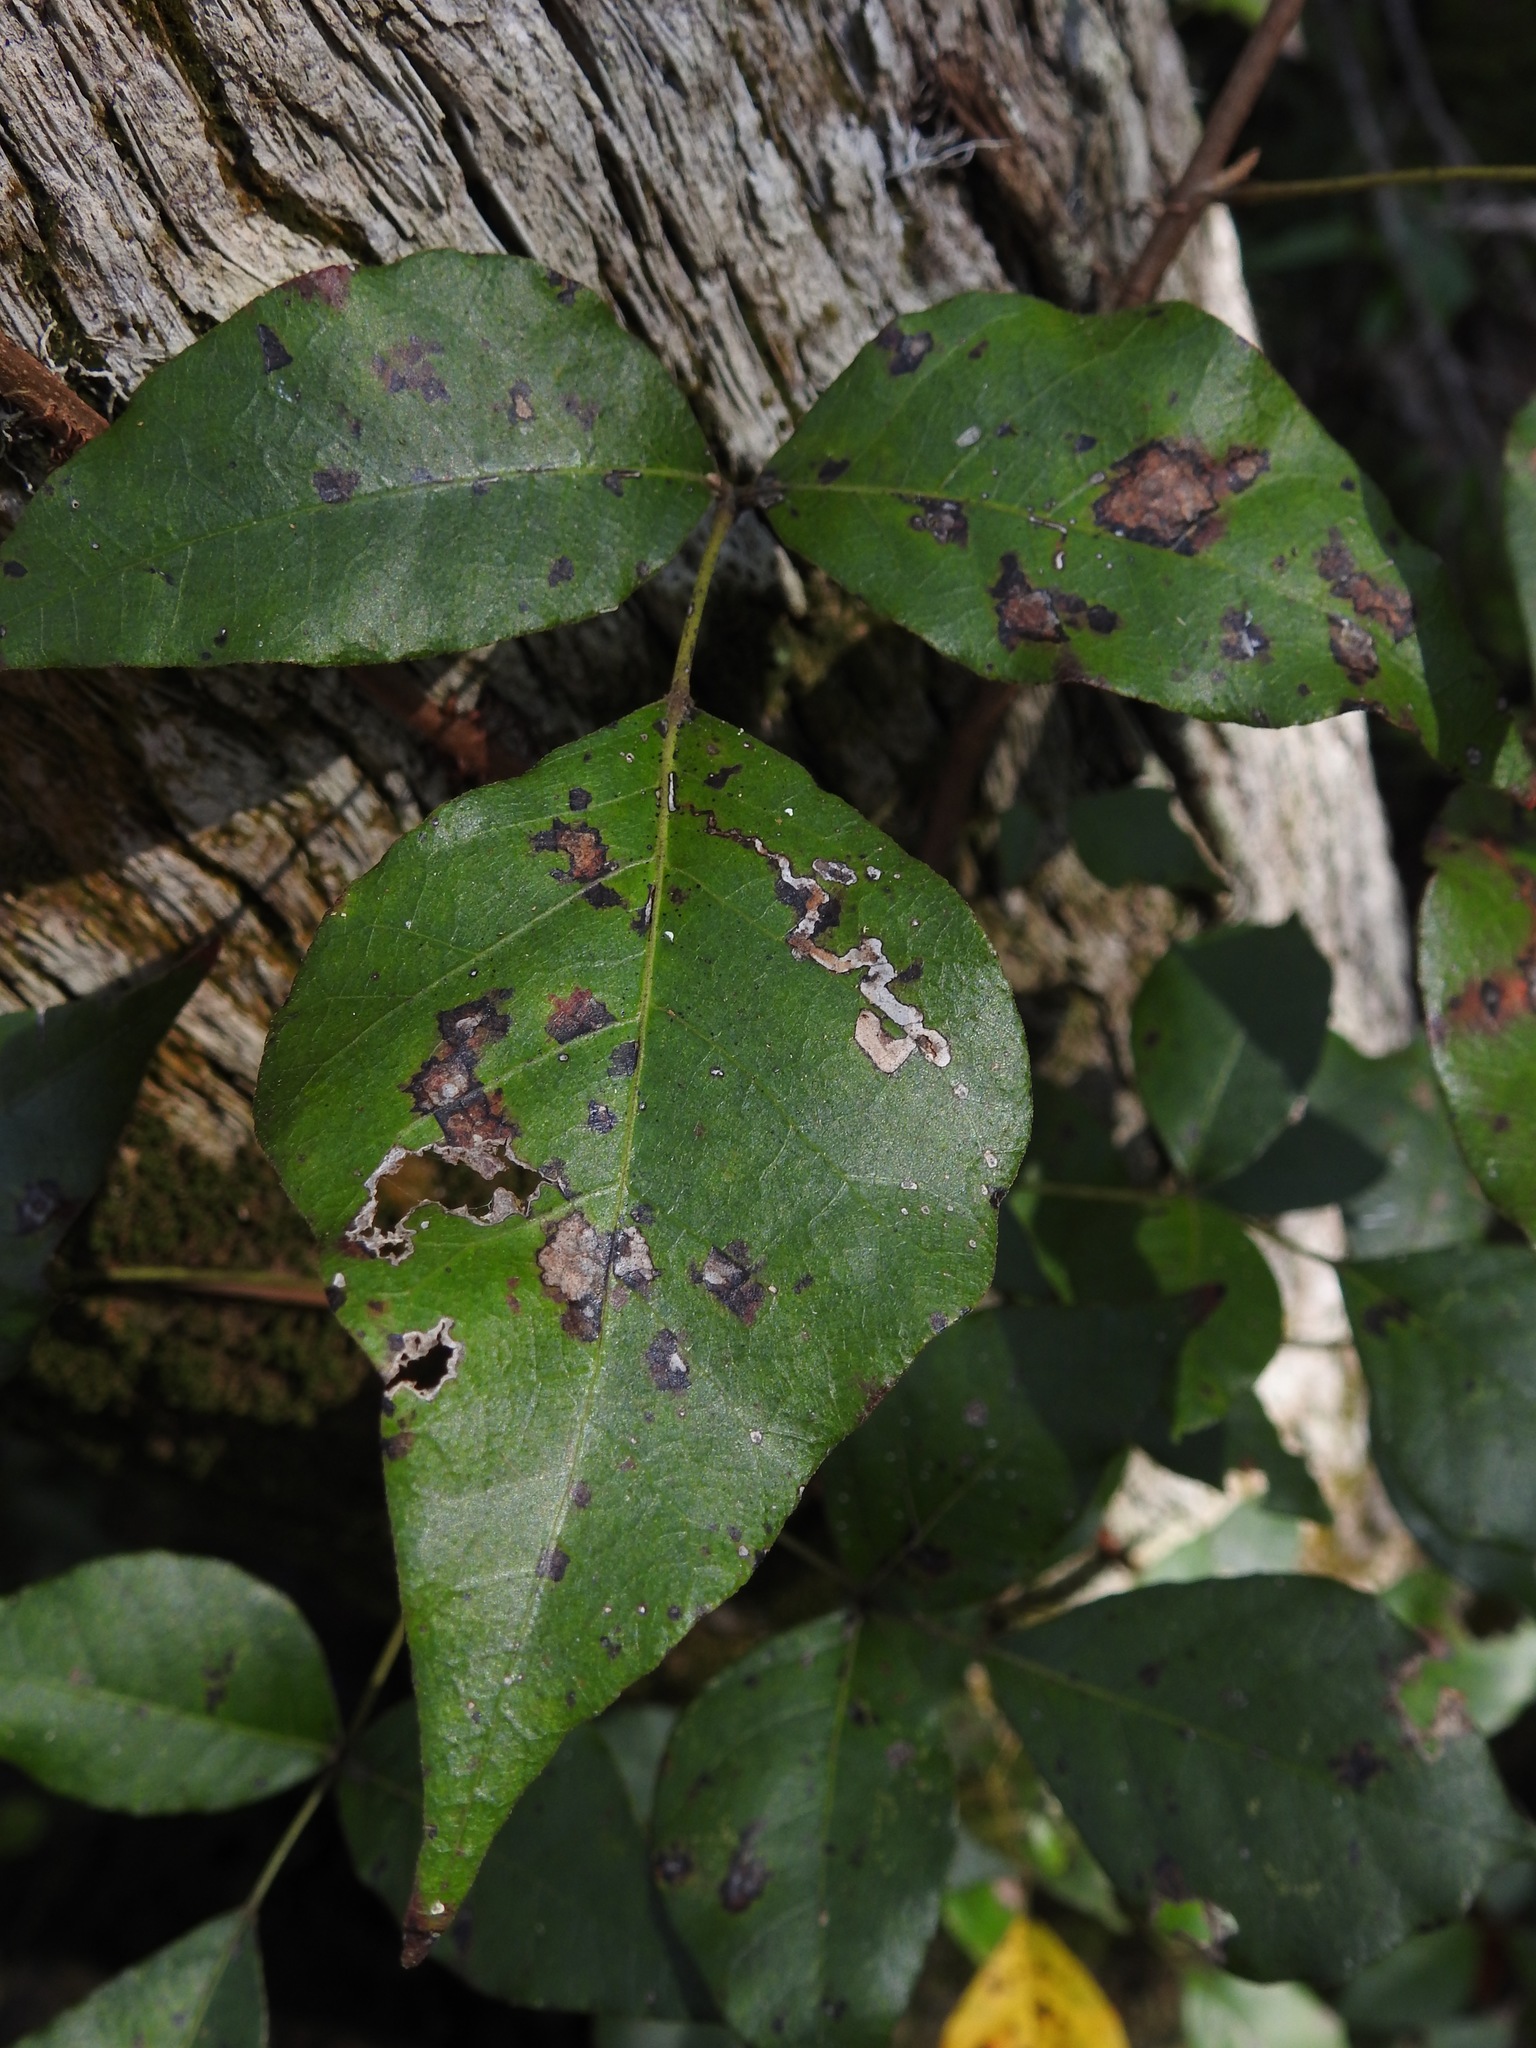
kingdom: Plantae
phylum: Tracheophyta
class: Magnoliopsida
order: Sapindales
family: Anacardiaceae
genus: Toxicodendron
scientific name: Toxicodendron radicans
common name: Poison ivy
